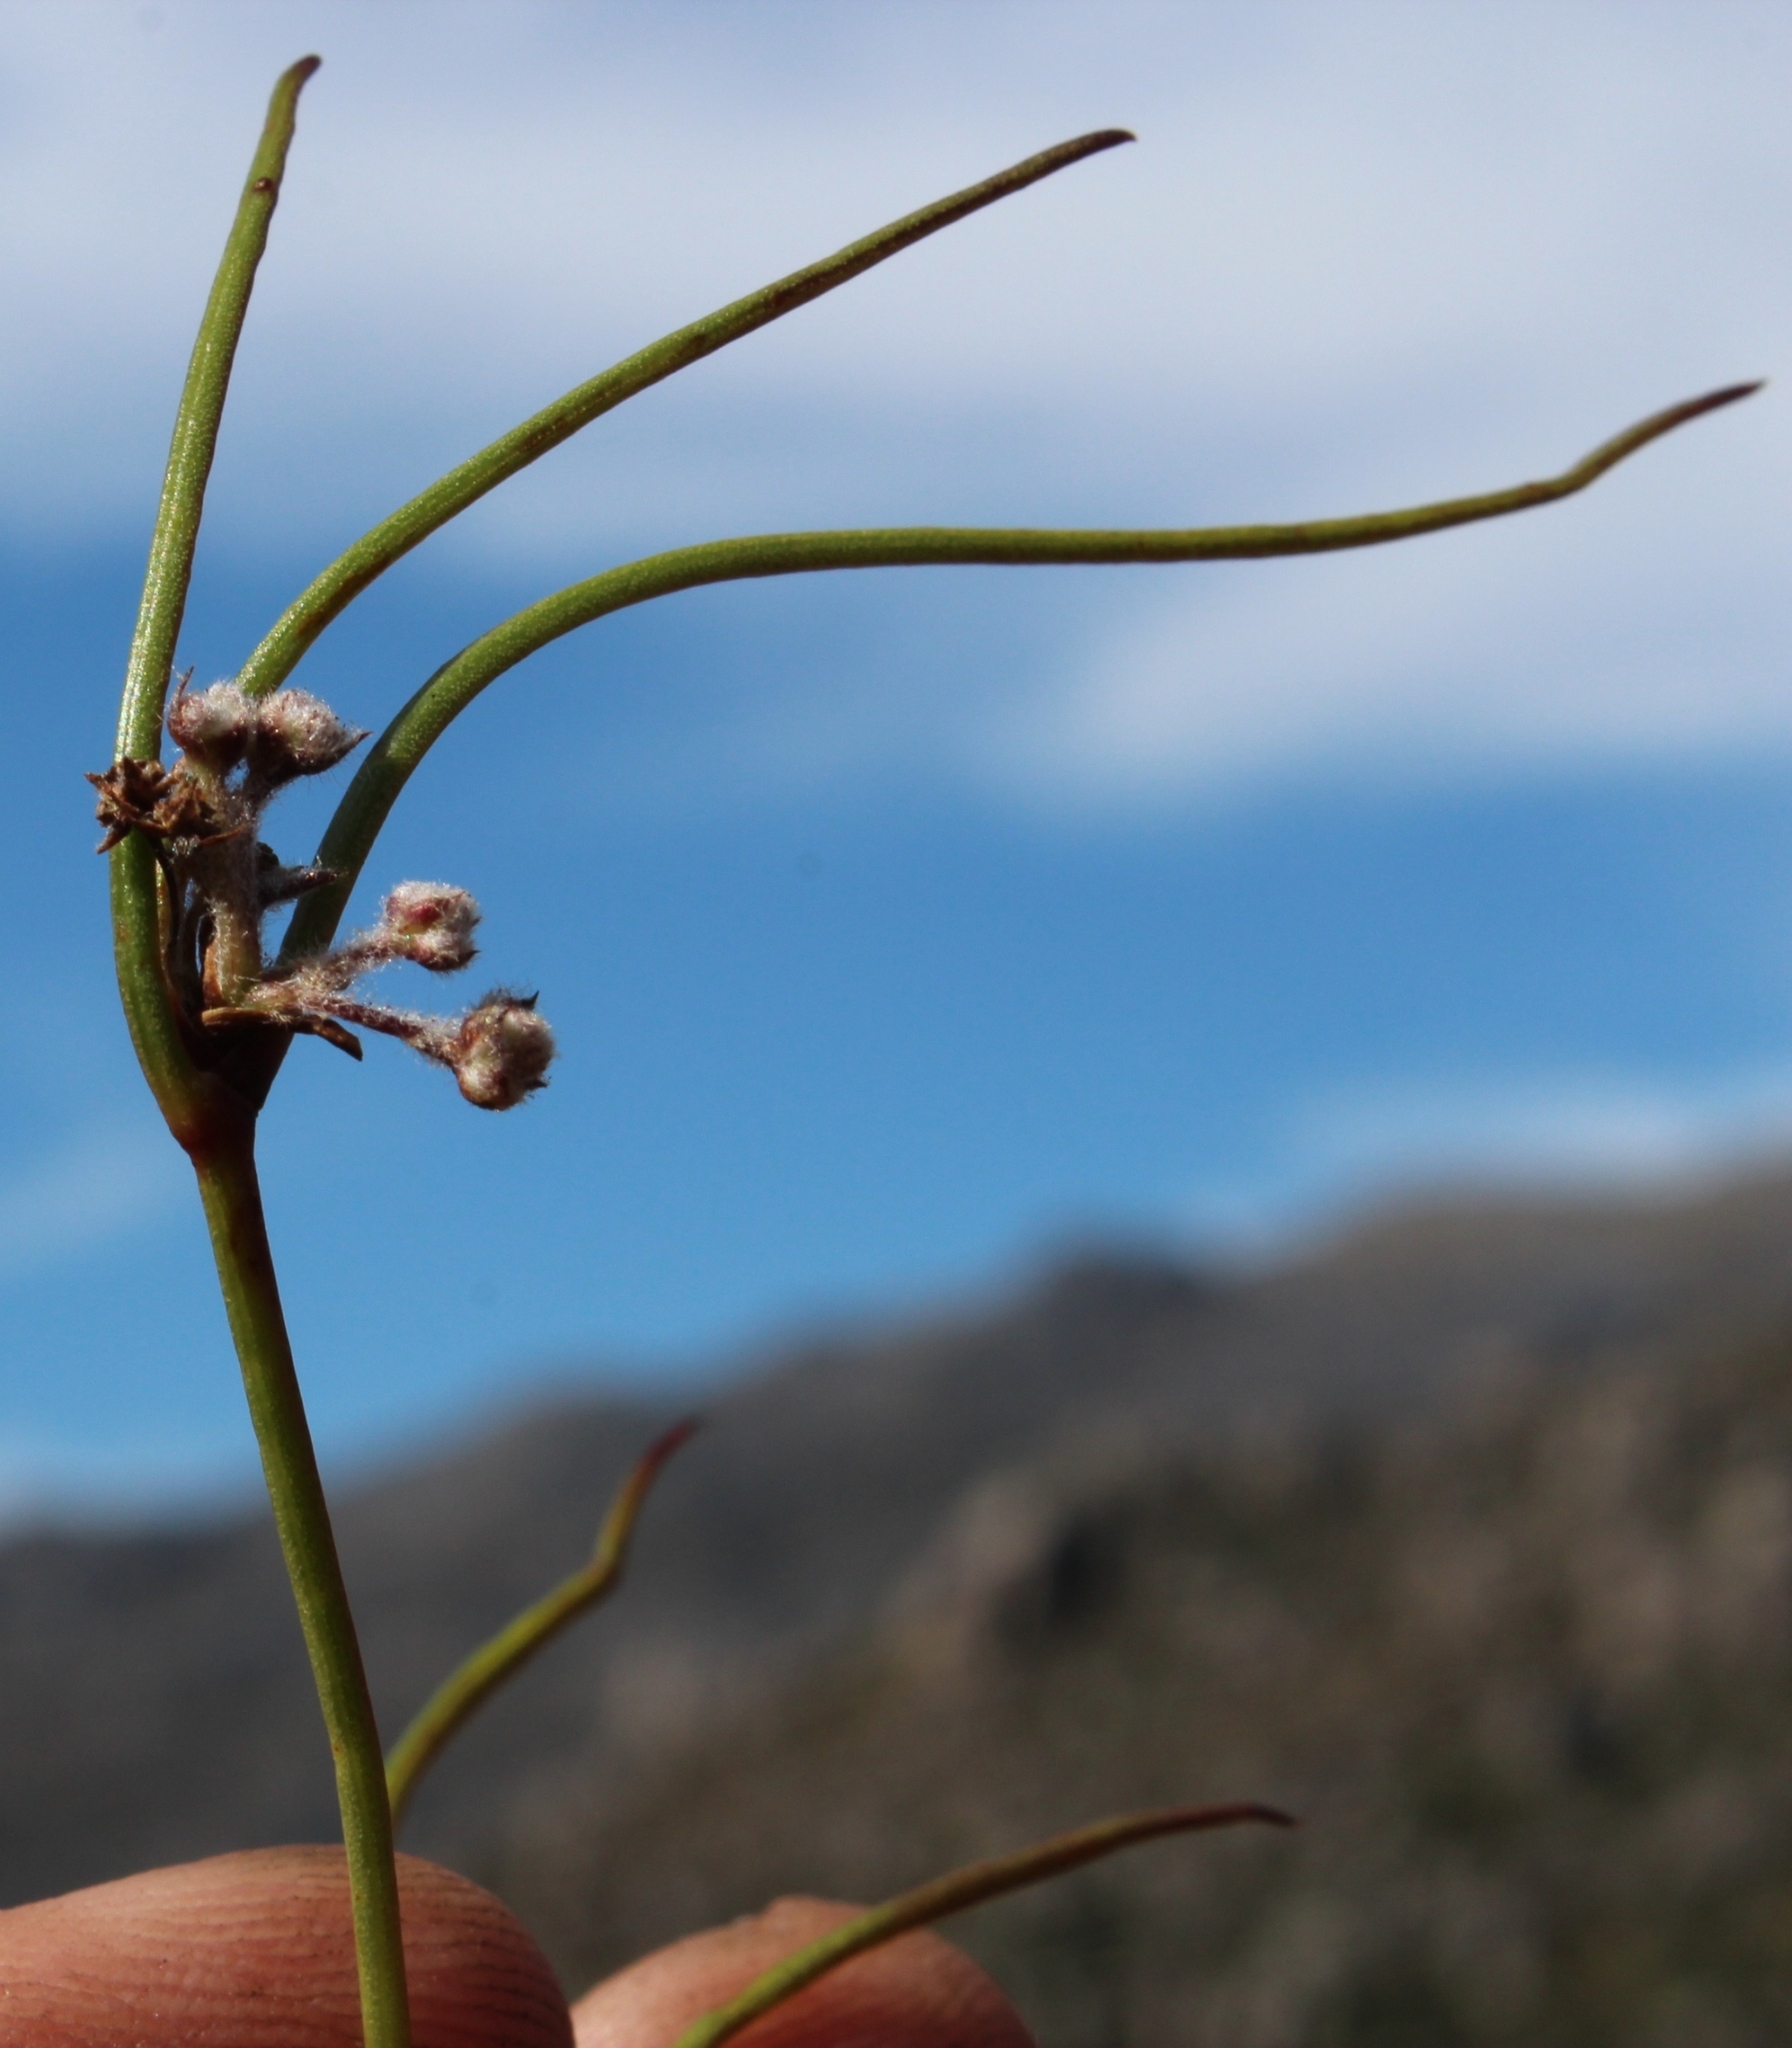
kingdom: Plantae
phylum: Tracheophyta
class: Magnoliopsida
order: Apiales
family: Apiaceae
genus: Centella
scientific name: Centella restioides
